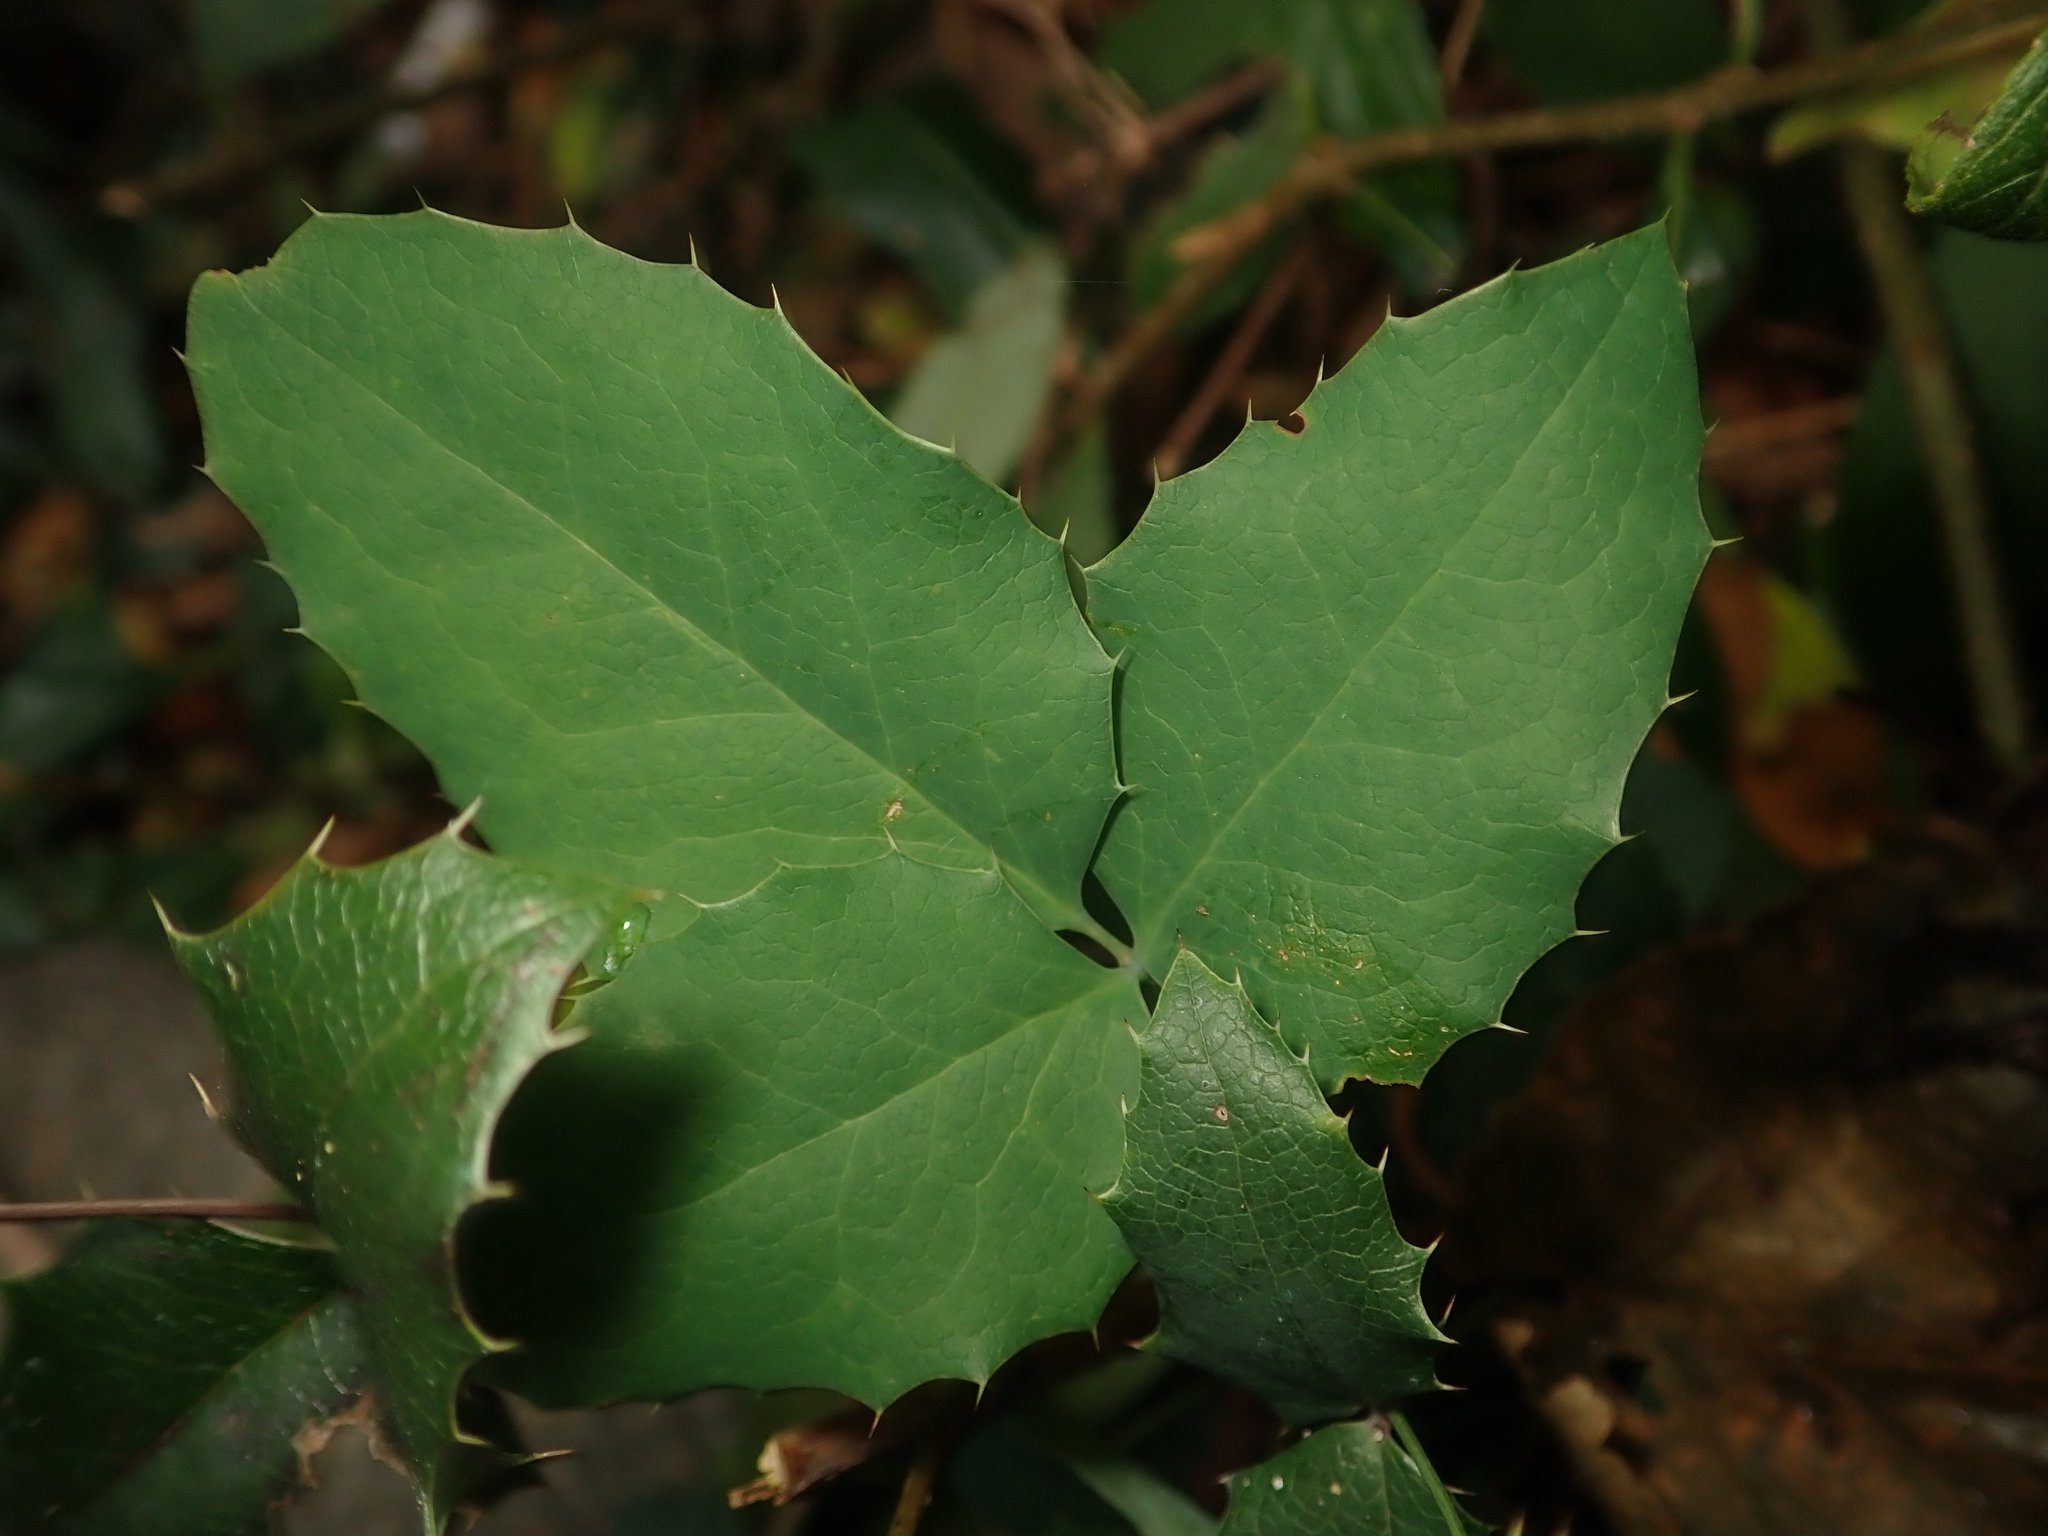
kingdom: Plantae
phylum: Tracheophyta
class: Magnoliopsida
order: Ranunculales
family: Berberidaceae
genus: Mahonia
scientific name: Mahonia aquifolium
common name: Oregon-grape
